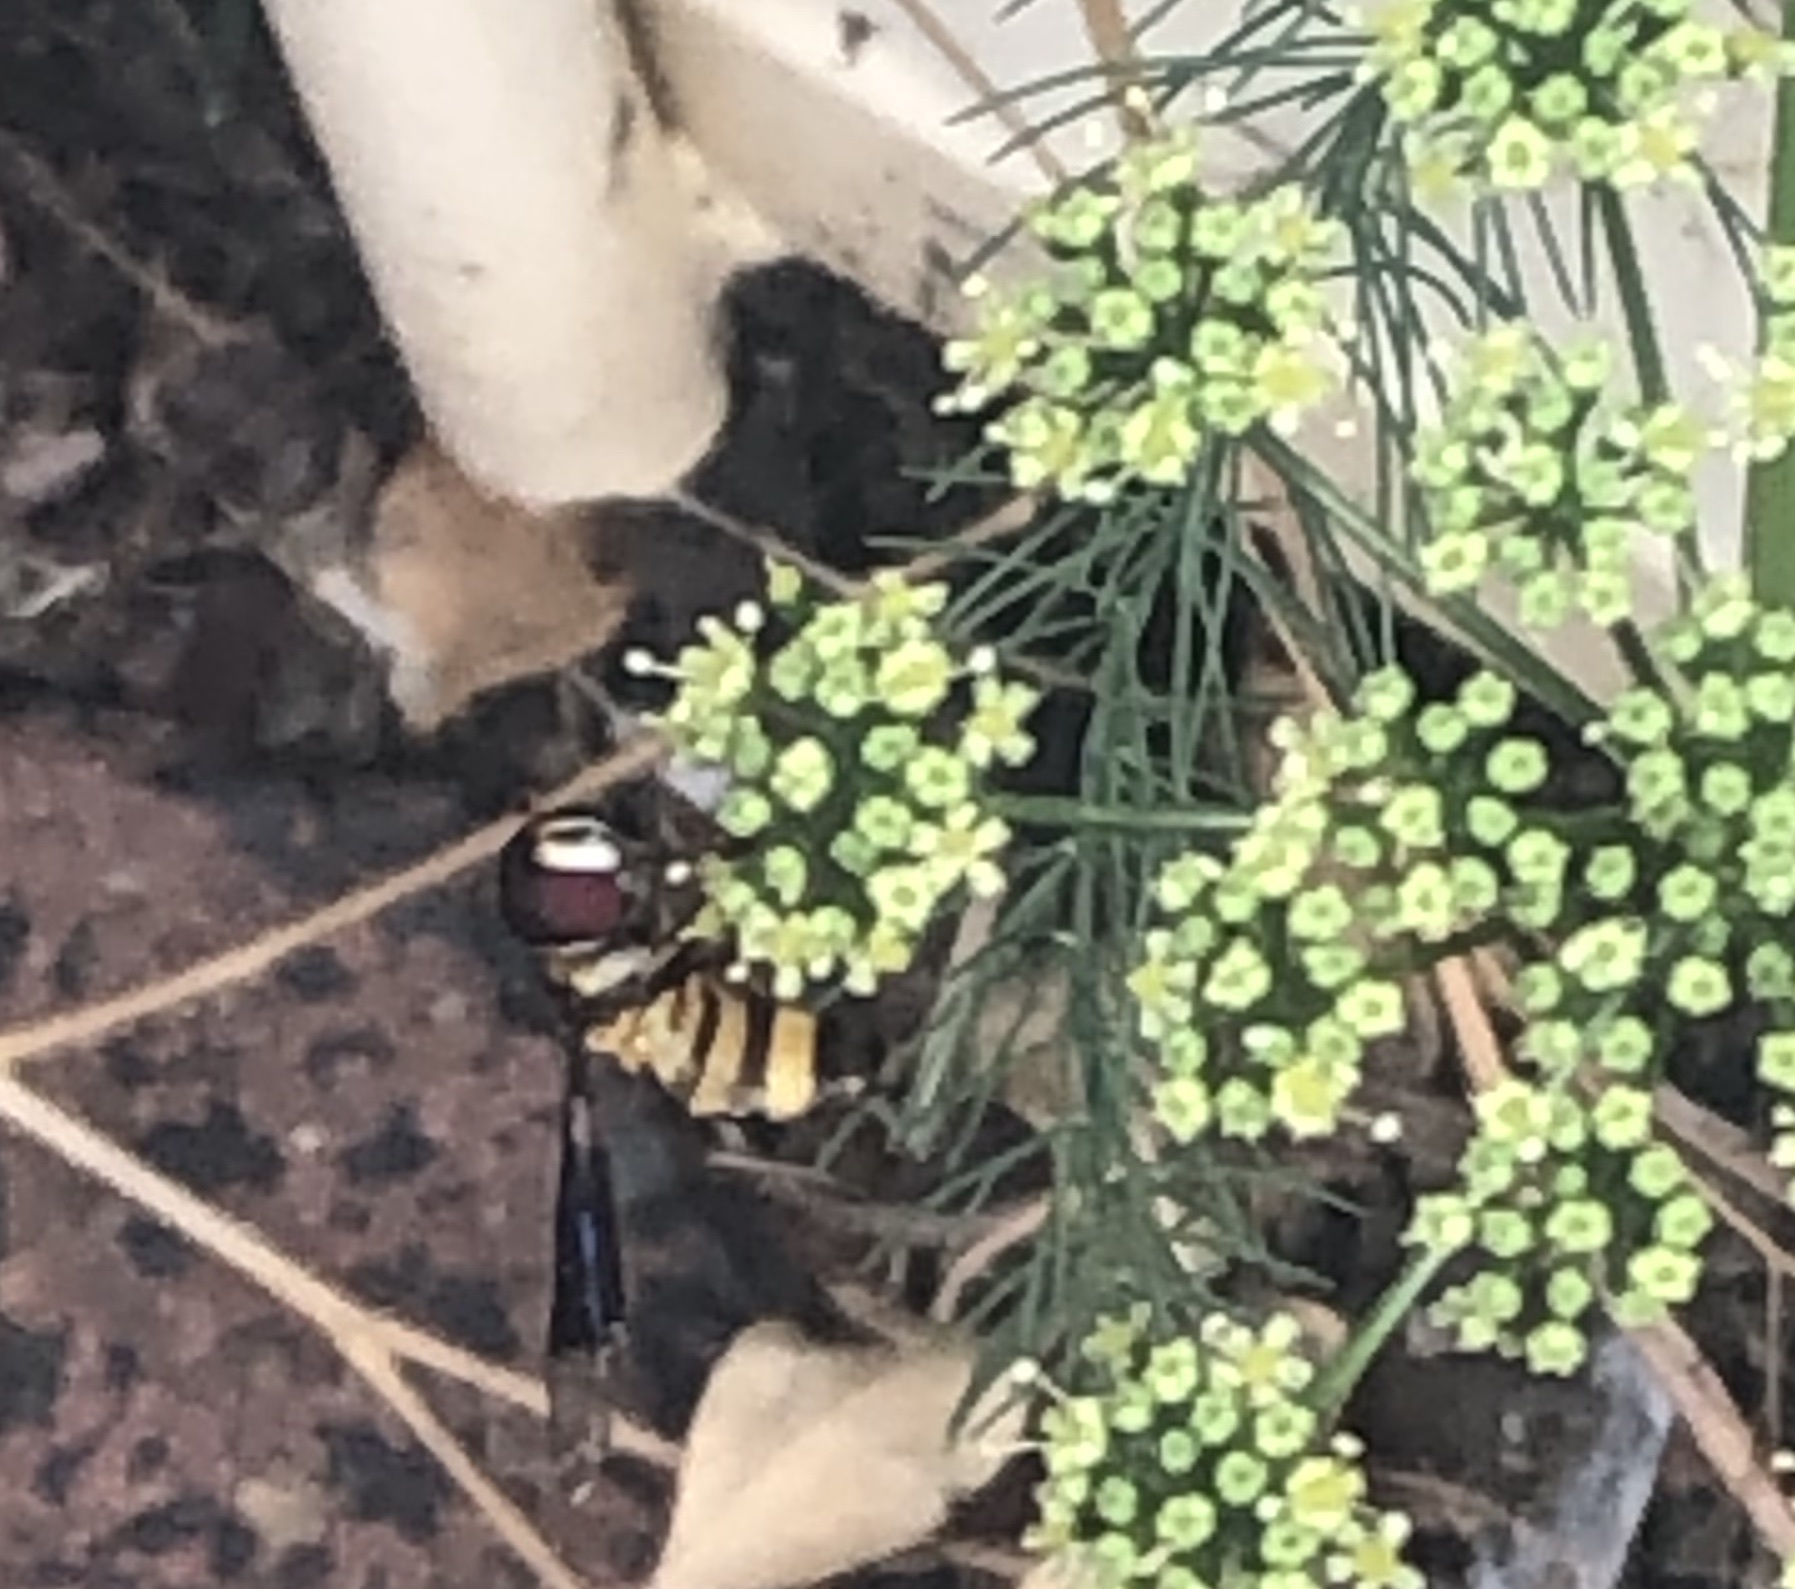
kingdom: Animalia
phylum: Arthropoda
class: Insecta
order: Diptera
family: Syrphidae
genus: Dideopsis
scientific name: Dideopsis aegrota
